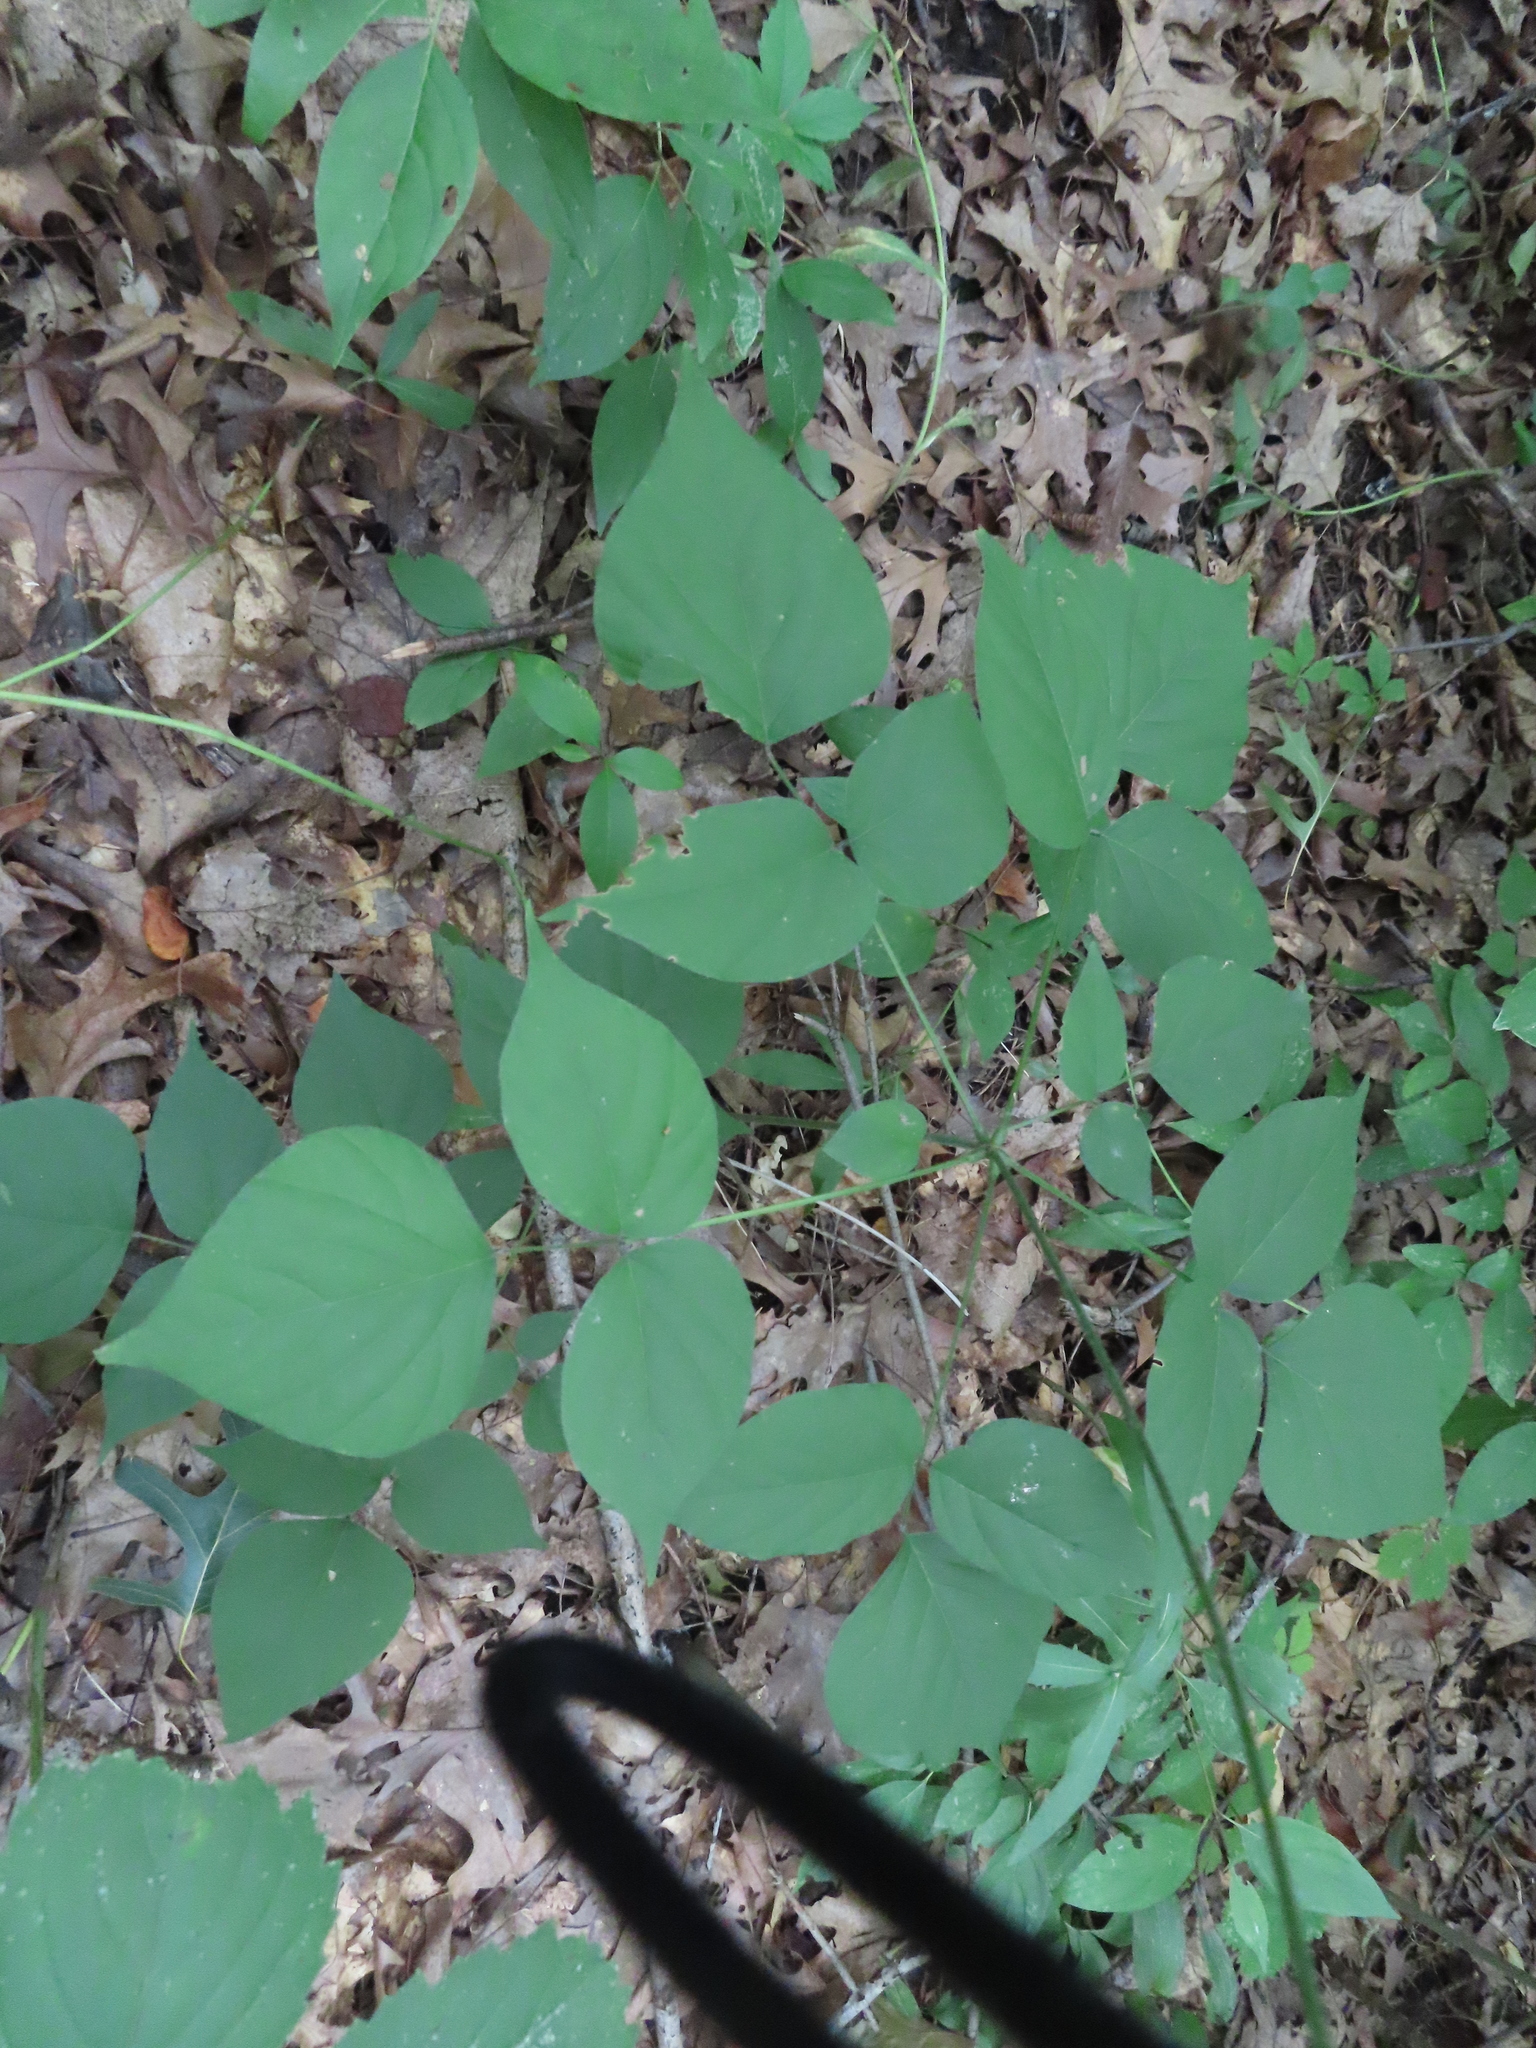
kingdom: Plantae
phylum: Tracheophyta
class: Magnoliopsida
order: Fabales
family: Fabaceae
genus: Hylodesmum
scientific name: Hylodesmum glutinosum
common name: Clustered-leaved tick-trefoil
